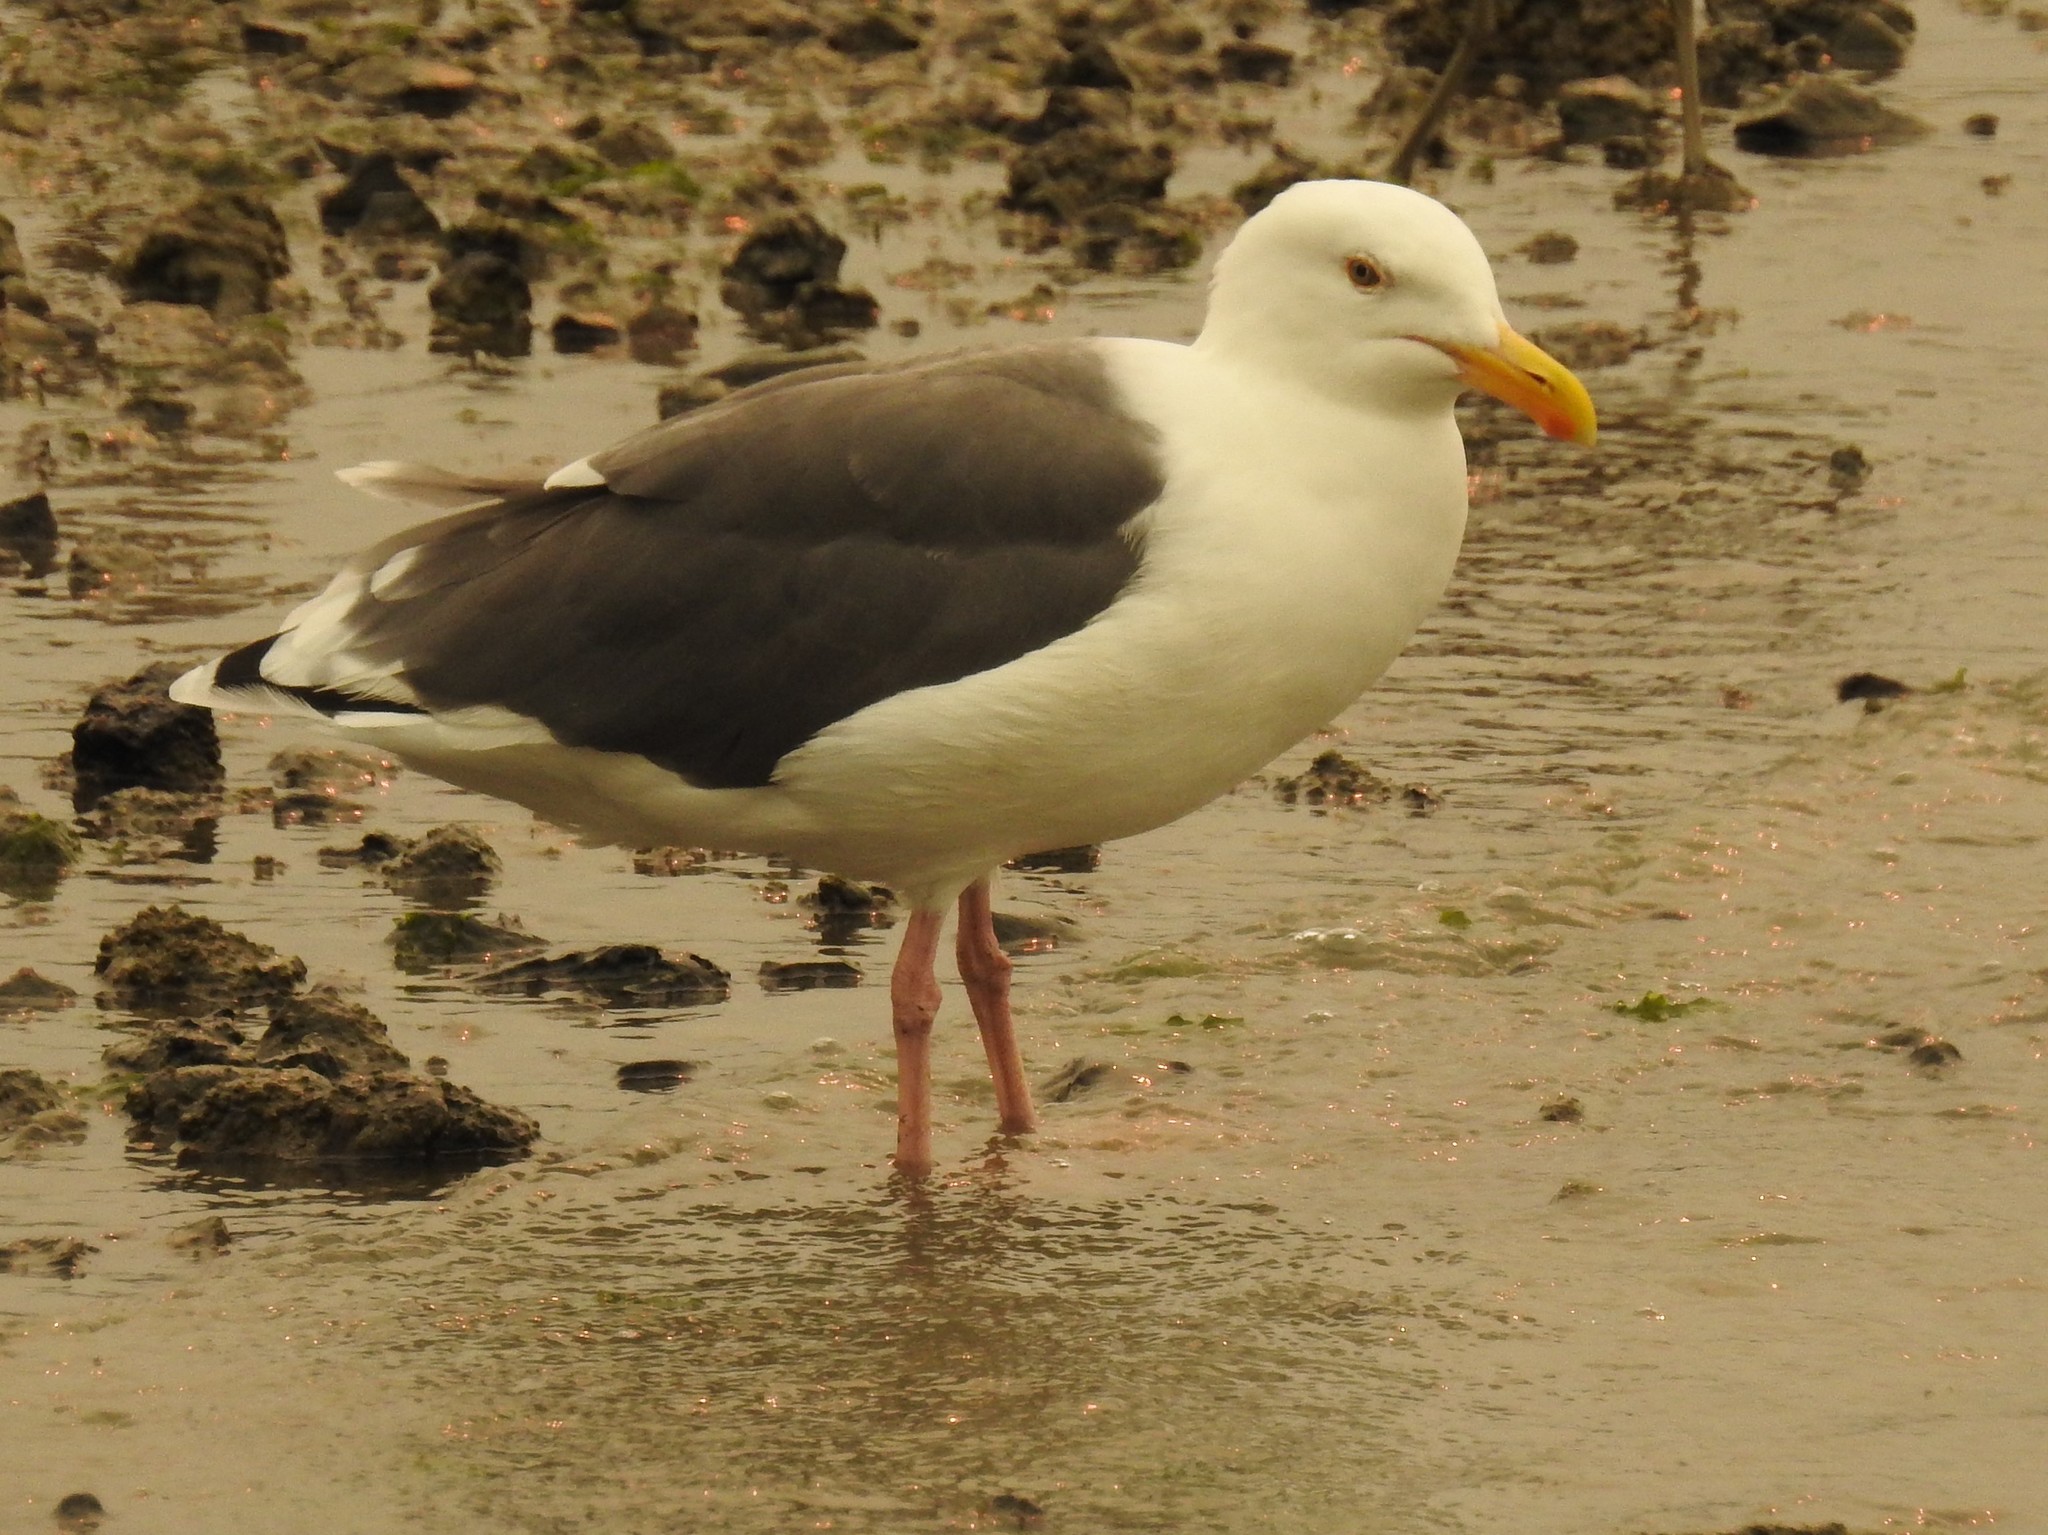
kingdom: Animalia
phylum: Chordata
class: Aves
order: Charadriiformes
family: Laridae
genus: Larus
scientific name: Larus occidentalis
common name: Western gull
